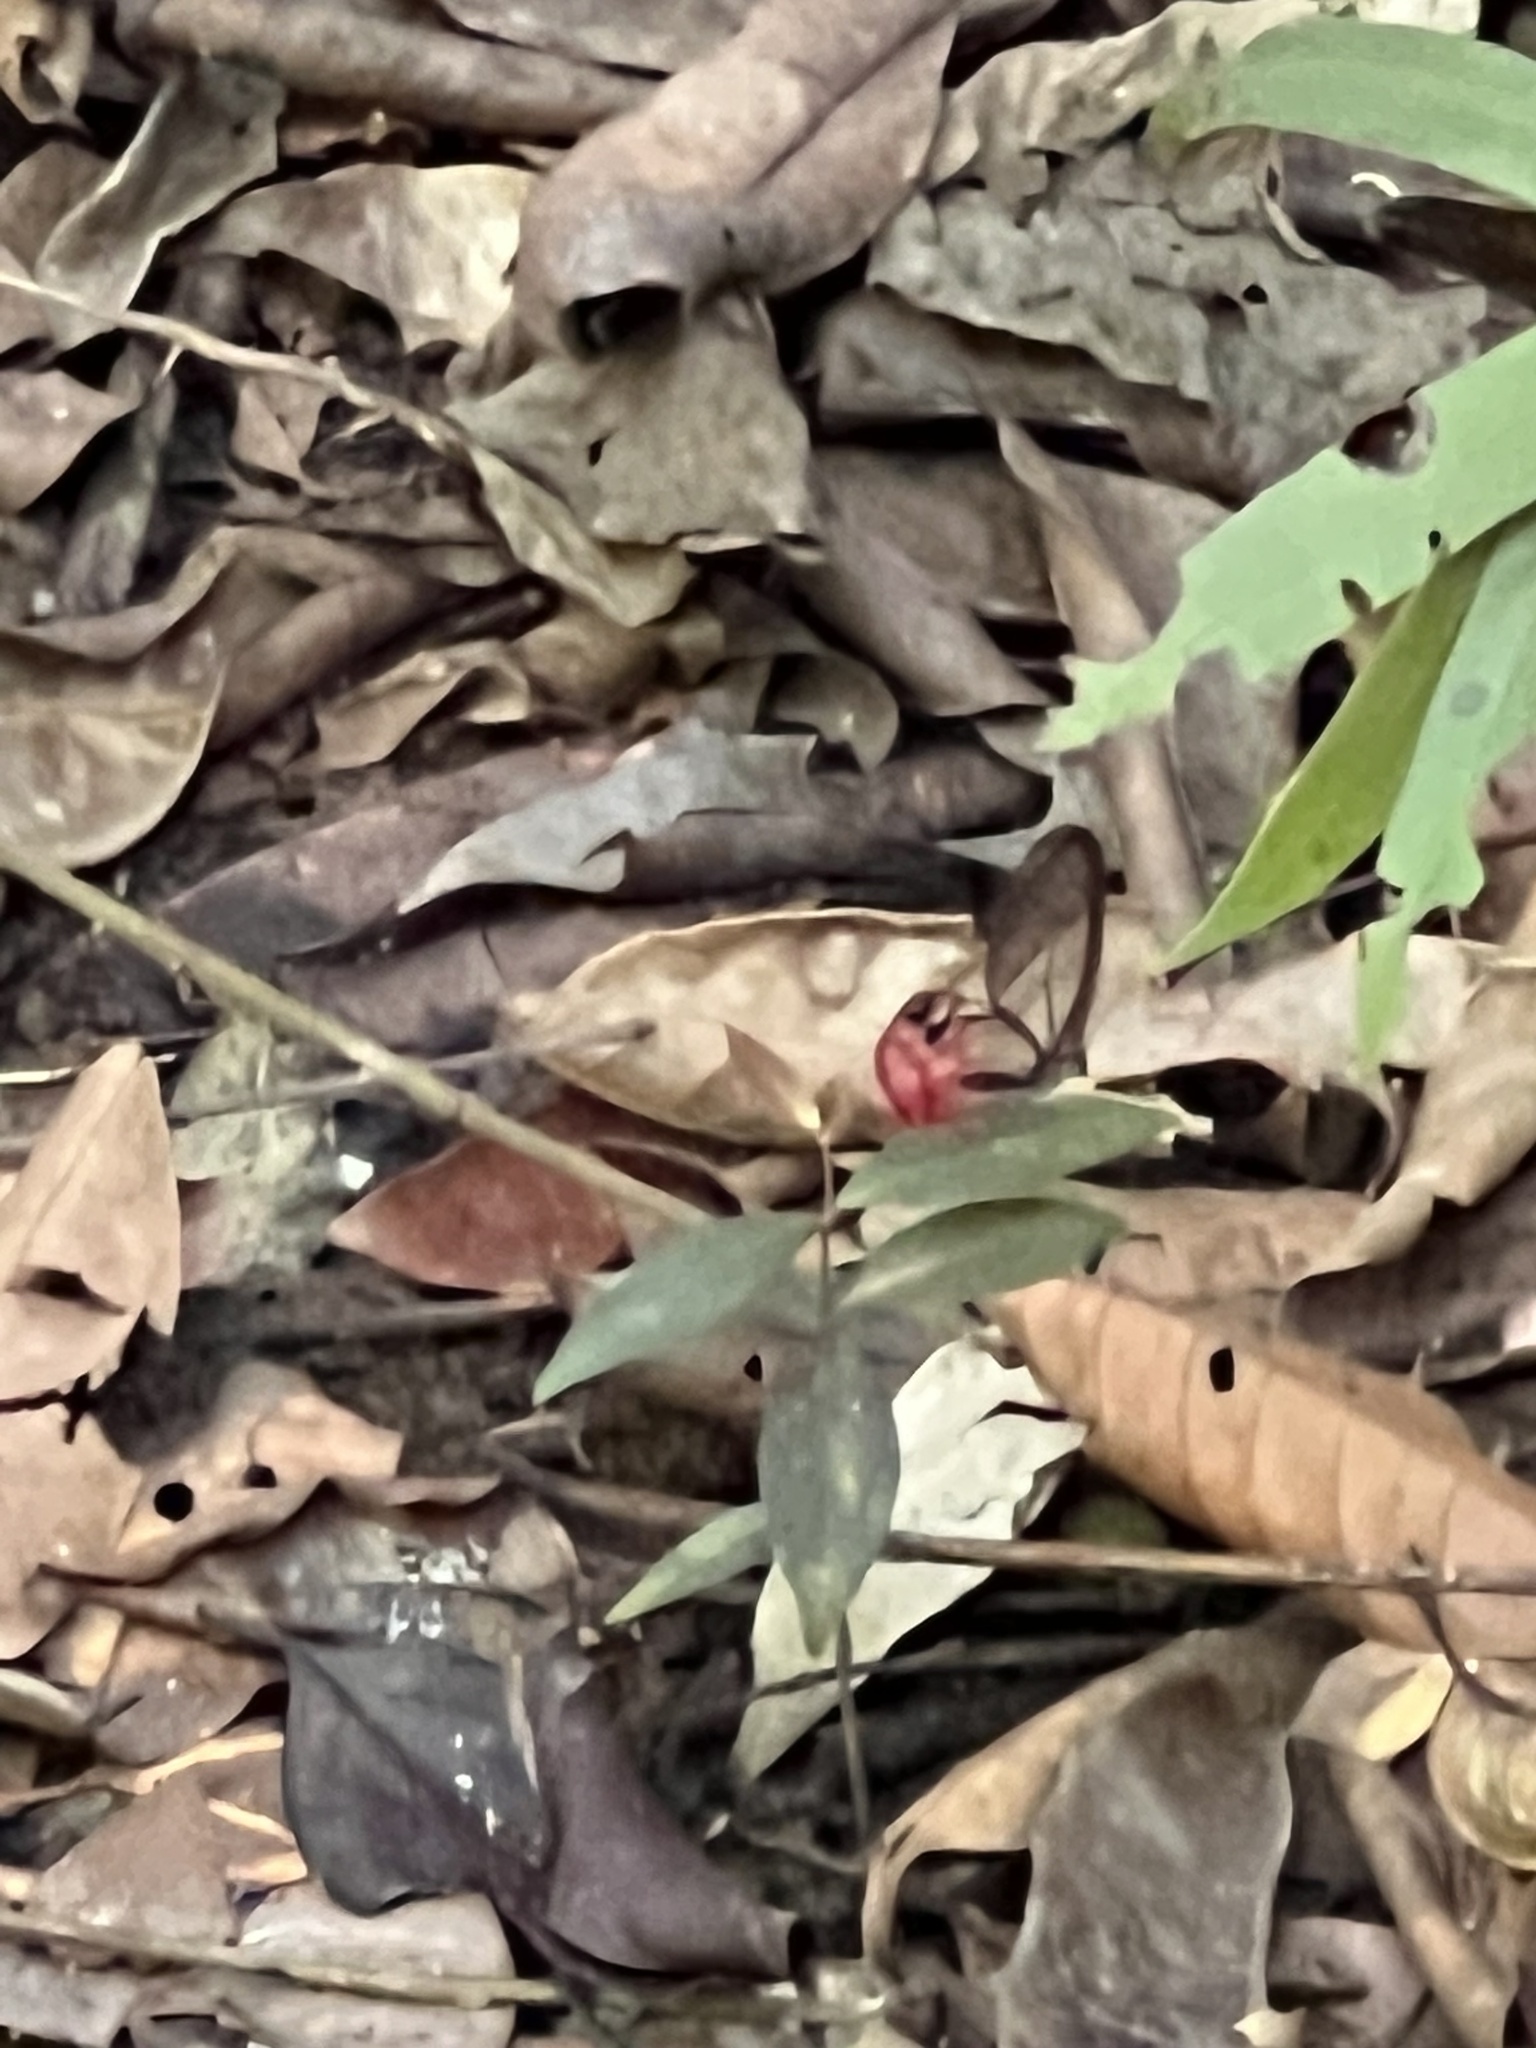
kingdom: Animalia
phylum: Arthropoda
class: Insecta
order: Lepidoptera
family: Nymphalidae
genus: Cithaerias
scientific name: Cithaerias pireta
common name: Rusted clearwing-satyr
